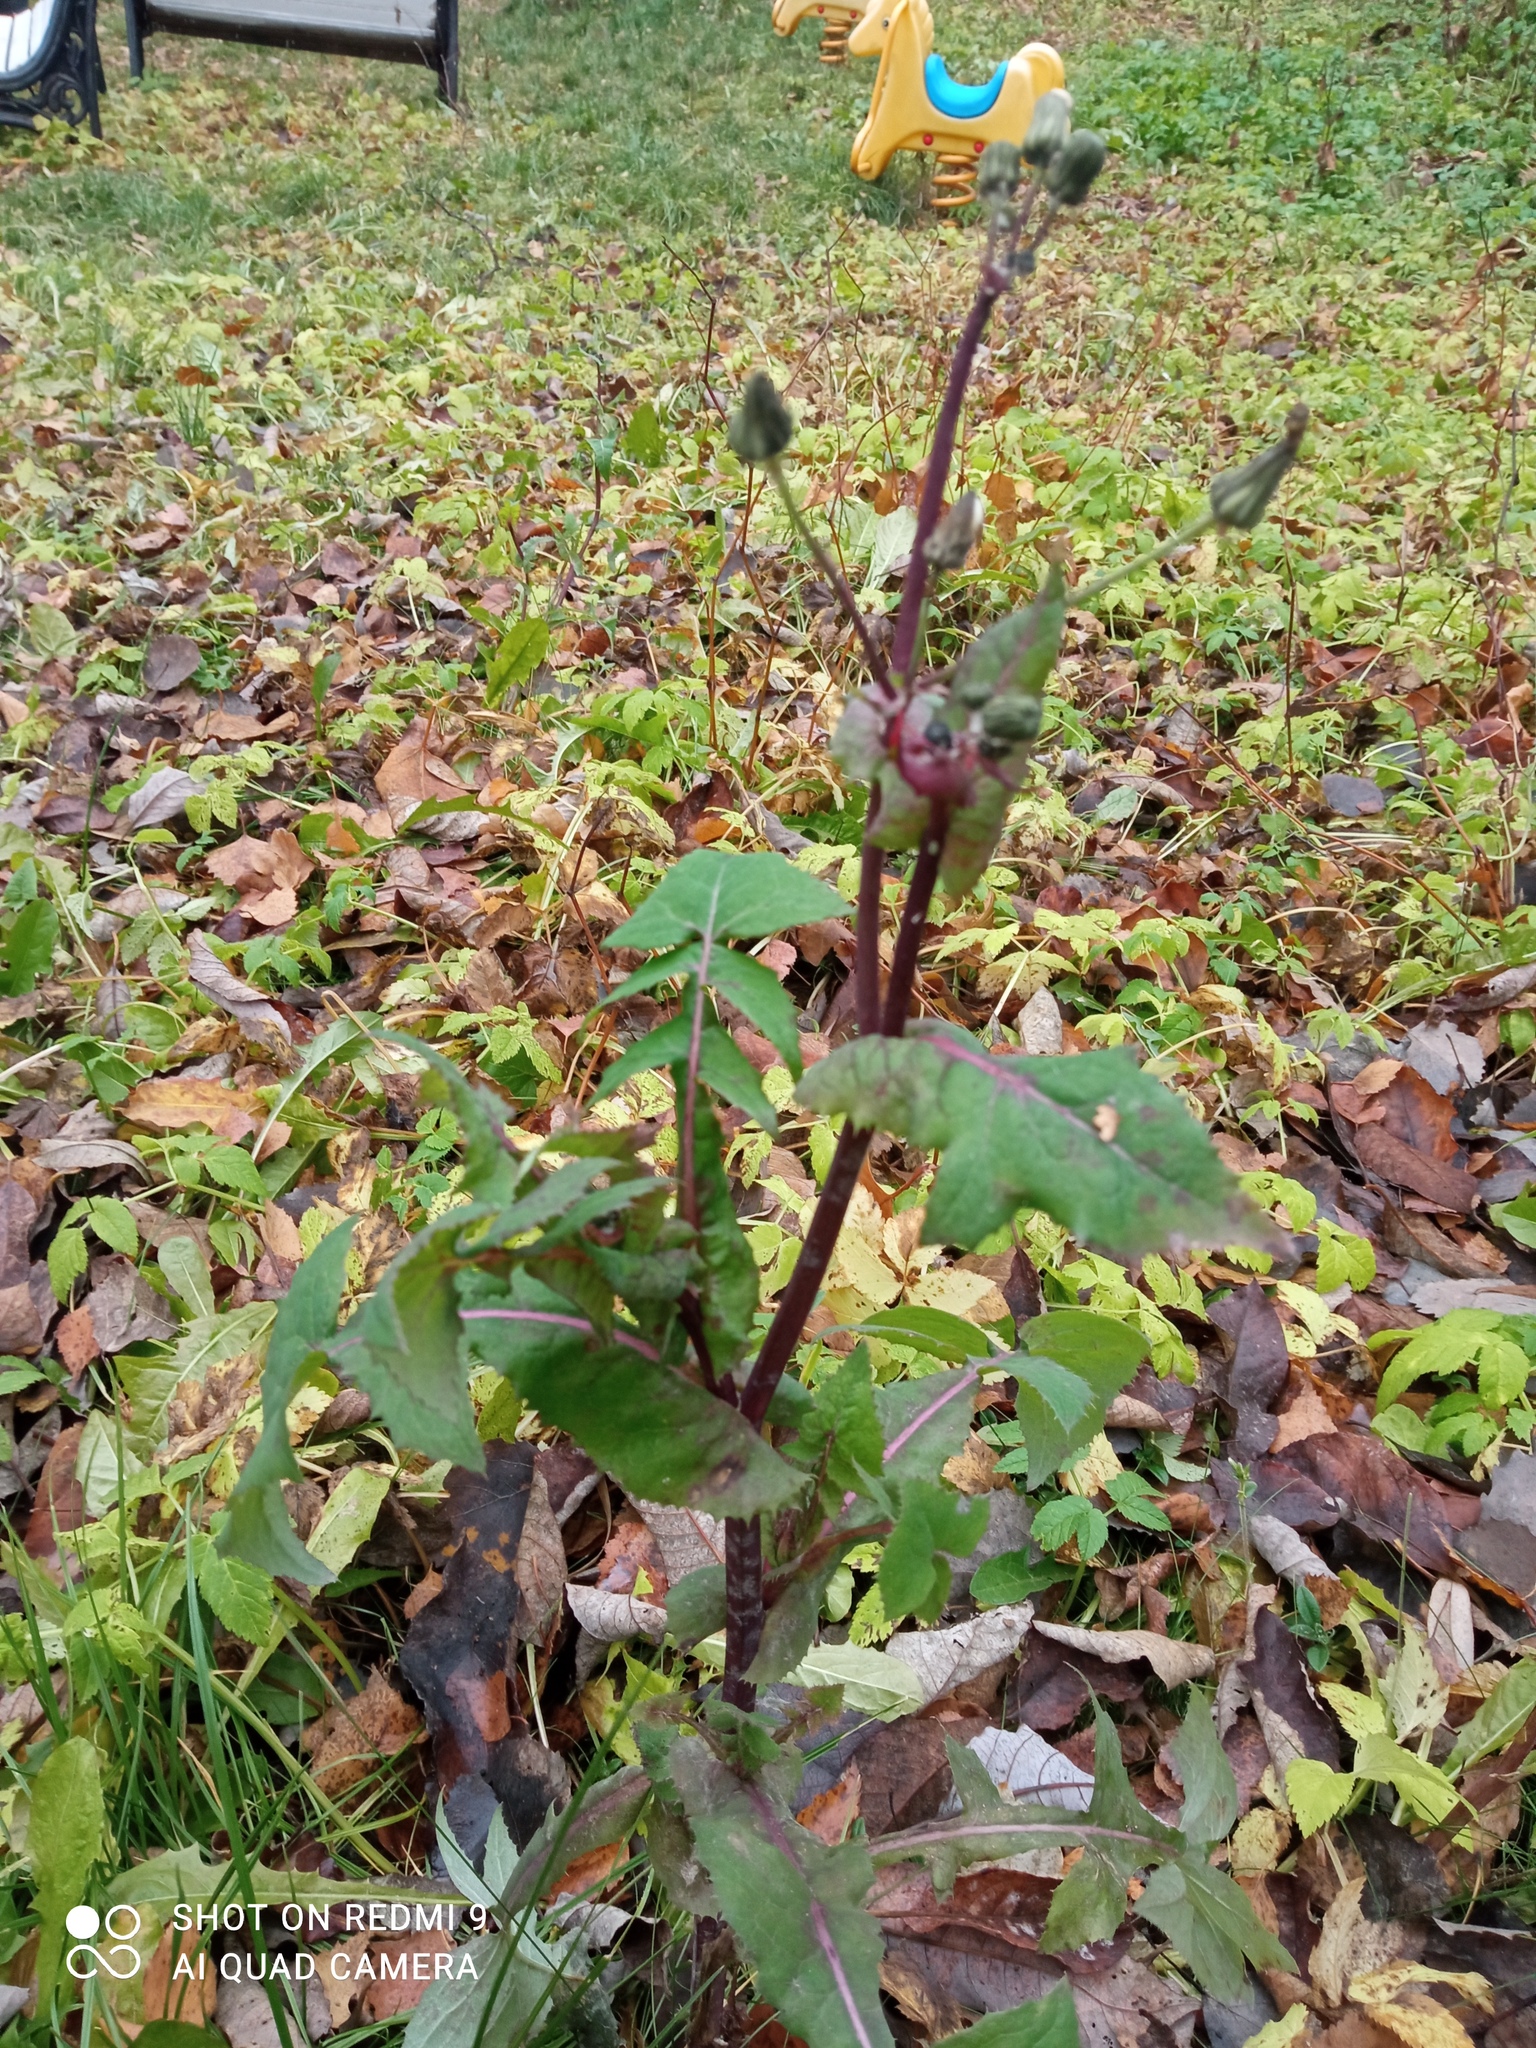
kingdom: Plantae
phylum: Tracheophyta
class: Magnoliopsida
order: Asterales
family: Asteraceae
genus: Sonchus
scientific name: Sonchus oleraceus
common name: Common sowthistle
